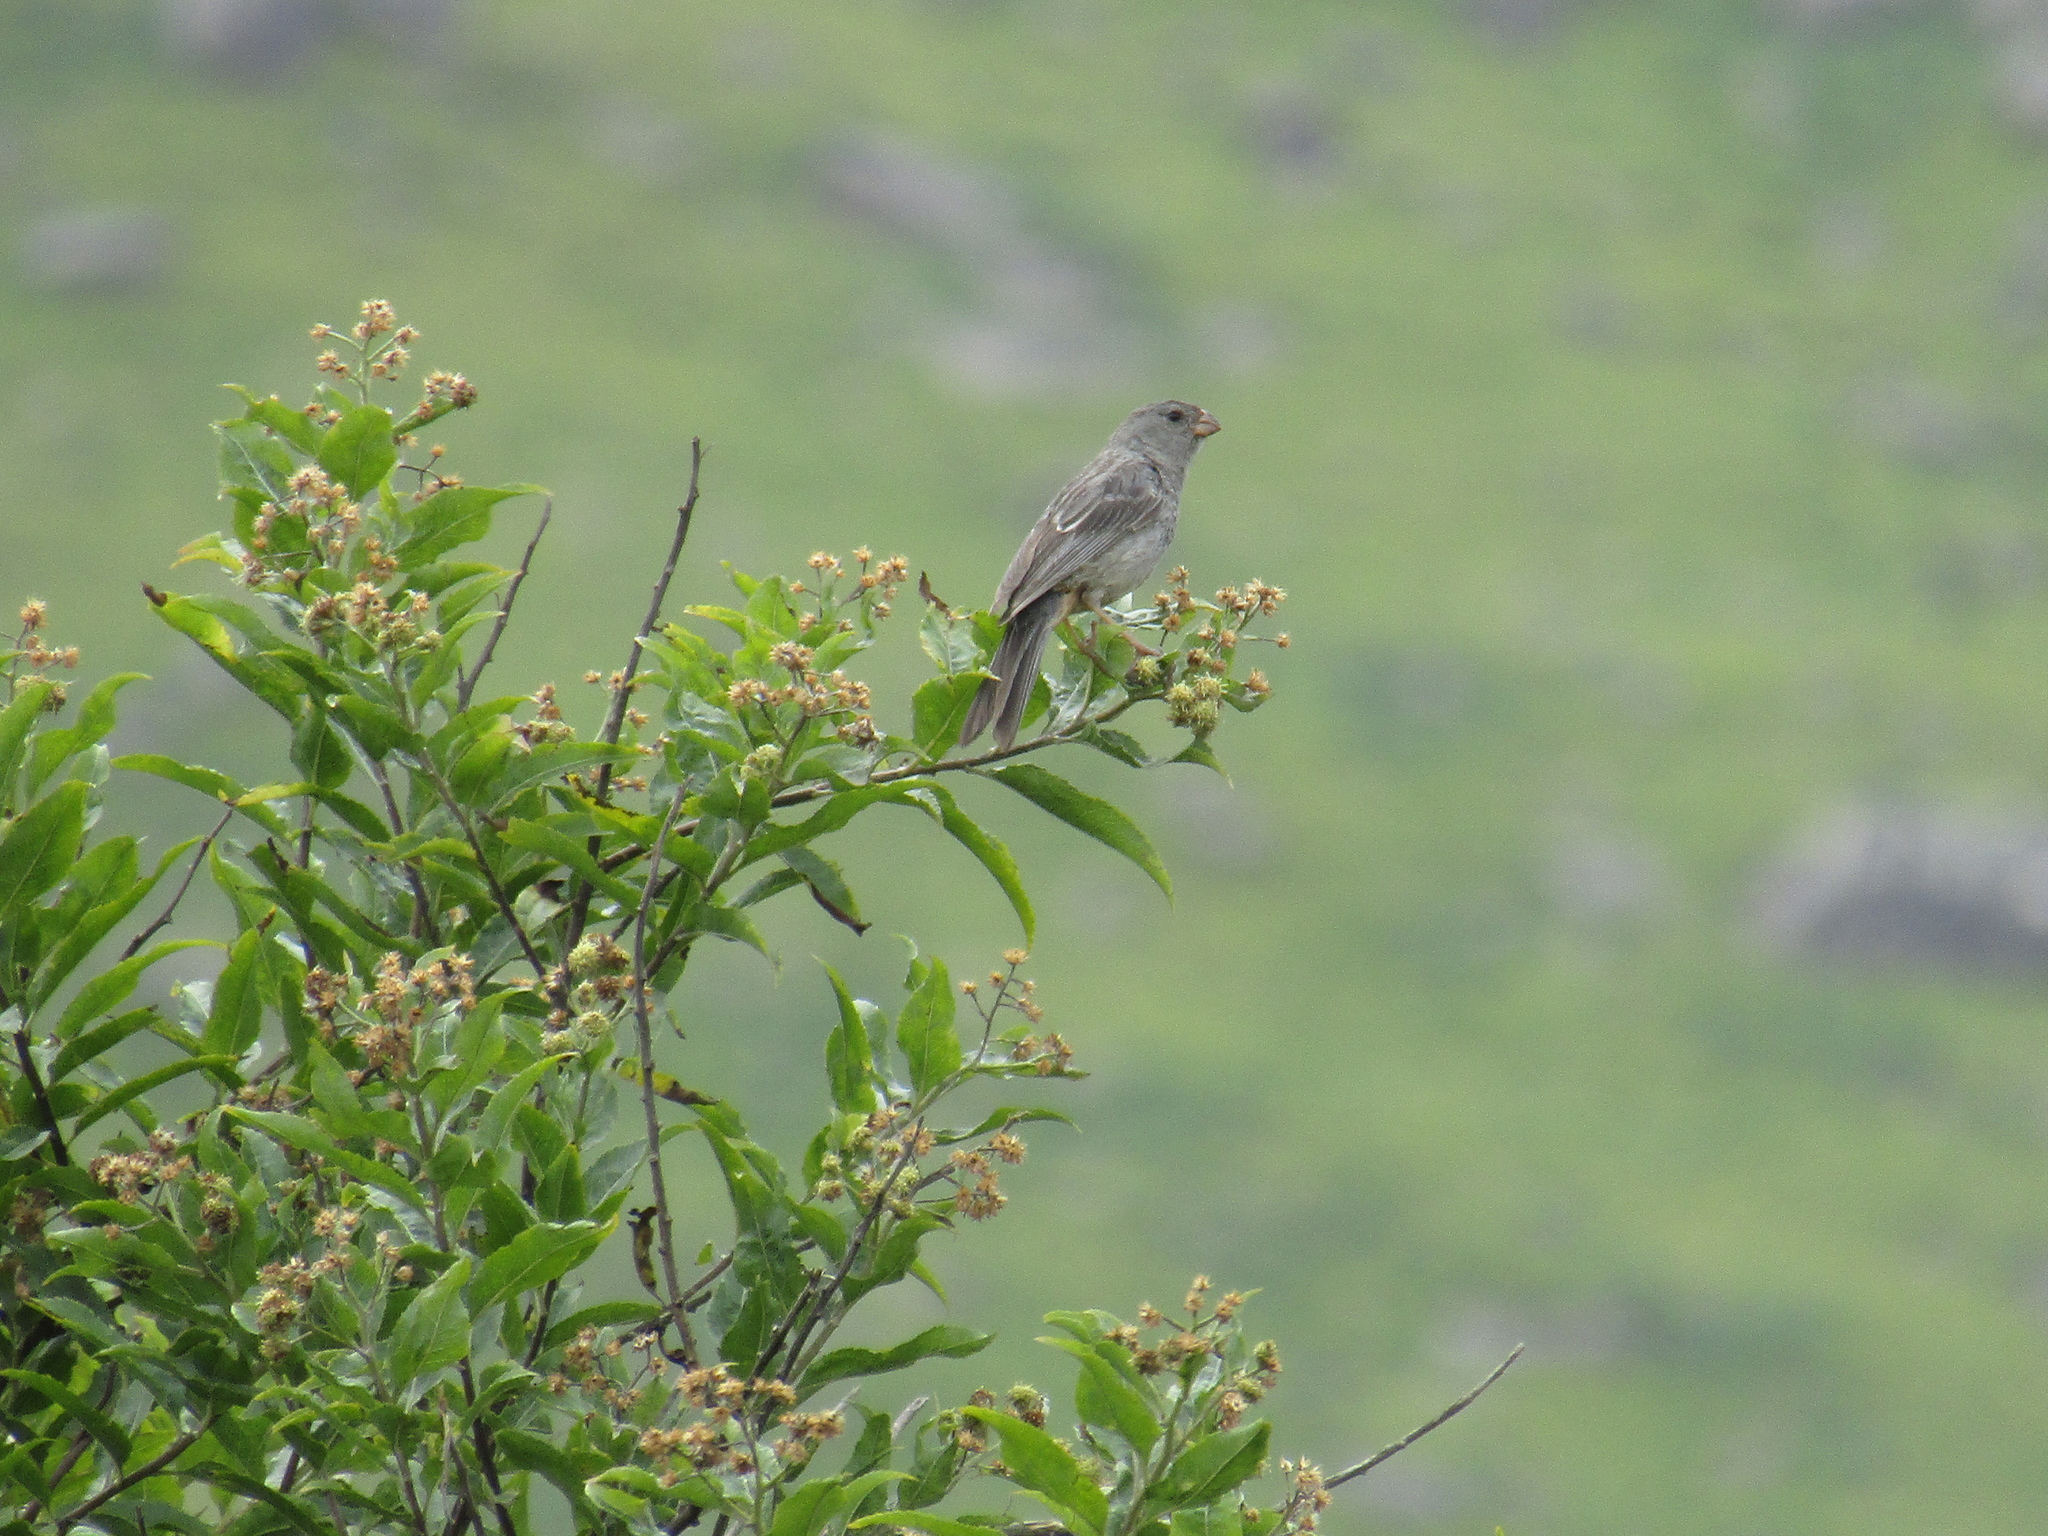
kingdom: Animalia
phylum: Chordata
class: Aves
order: Passeriformes
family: Thraupidae
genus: Catamenia
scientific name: Catamenia inornata
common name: Plain-colored seedeater
